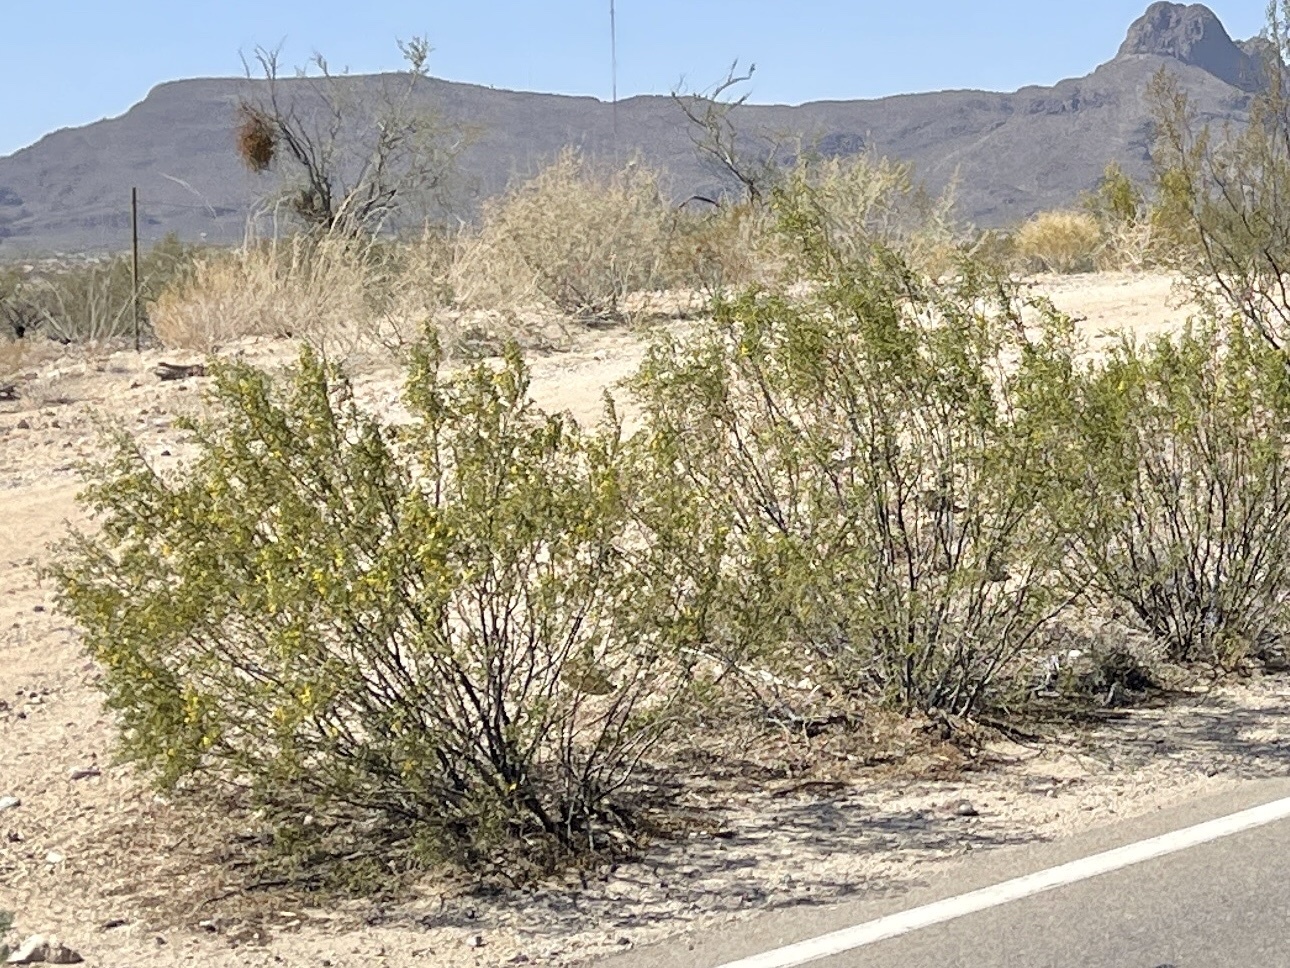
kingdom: Plantae
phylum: Tracheophyta
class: Magnoliopsida
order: Zygophyllales
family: Zygophyllaceae
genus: Larrea
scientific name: Larrea tridentata
